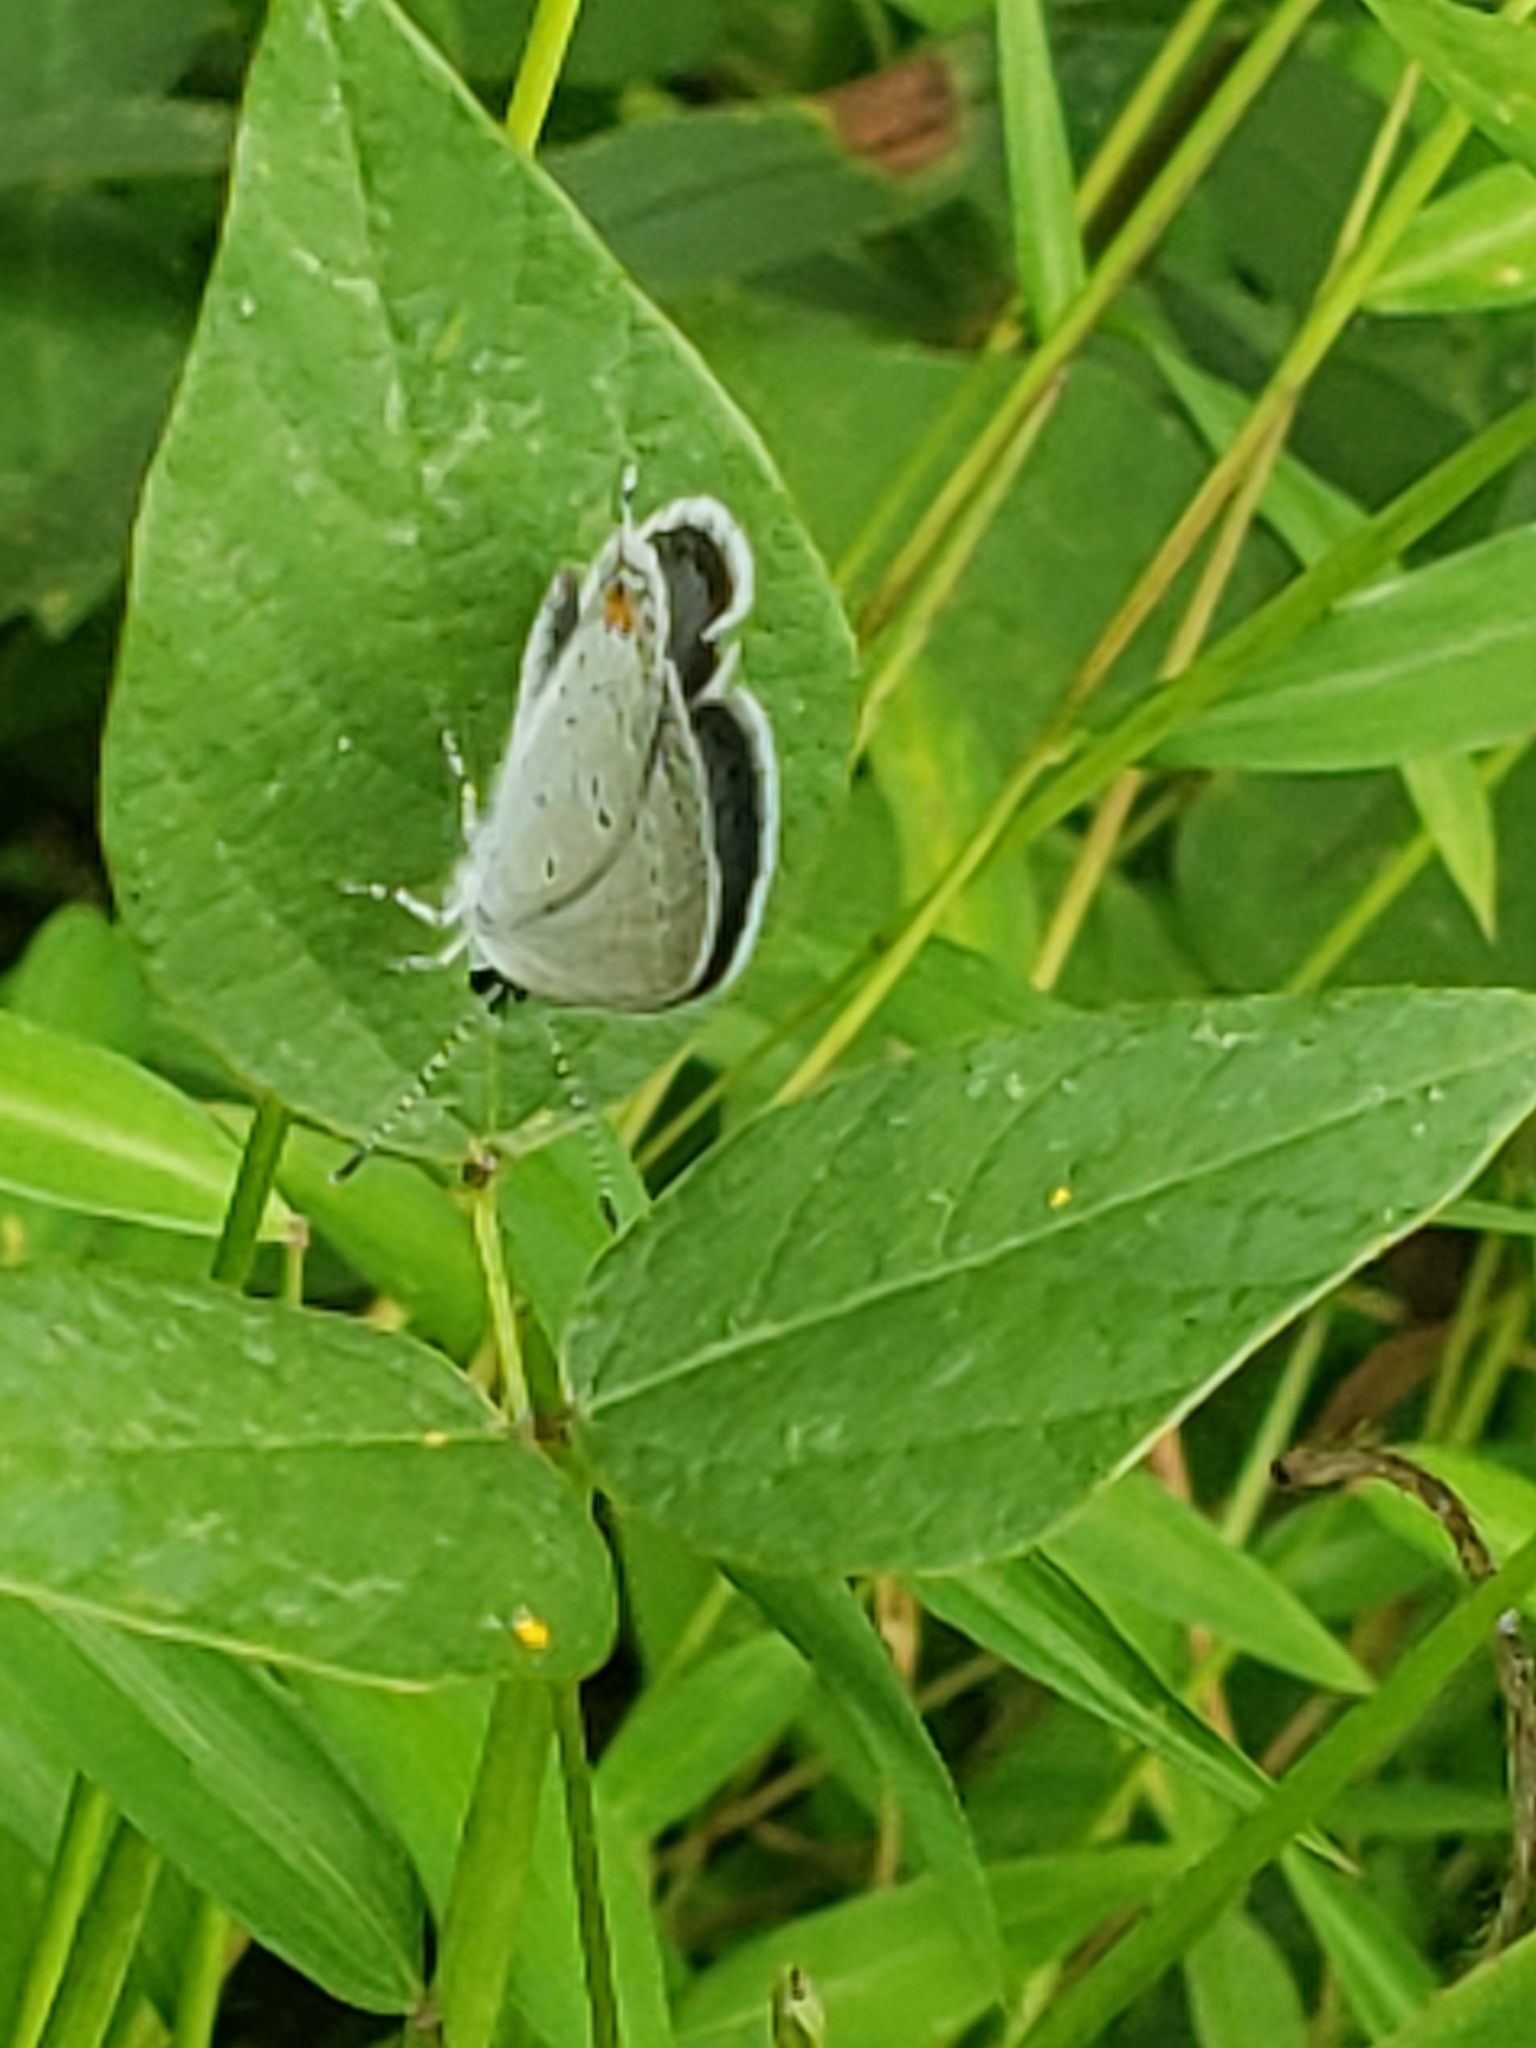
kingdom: Animalia
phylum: Arthropoda
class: Insecta
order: Lepidoptera
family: Lycaenidae
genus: Elkalyce
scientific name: Elkalyce comyntas
